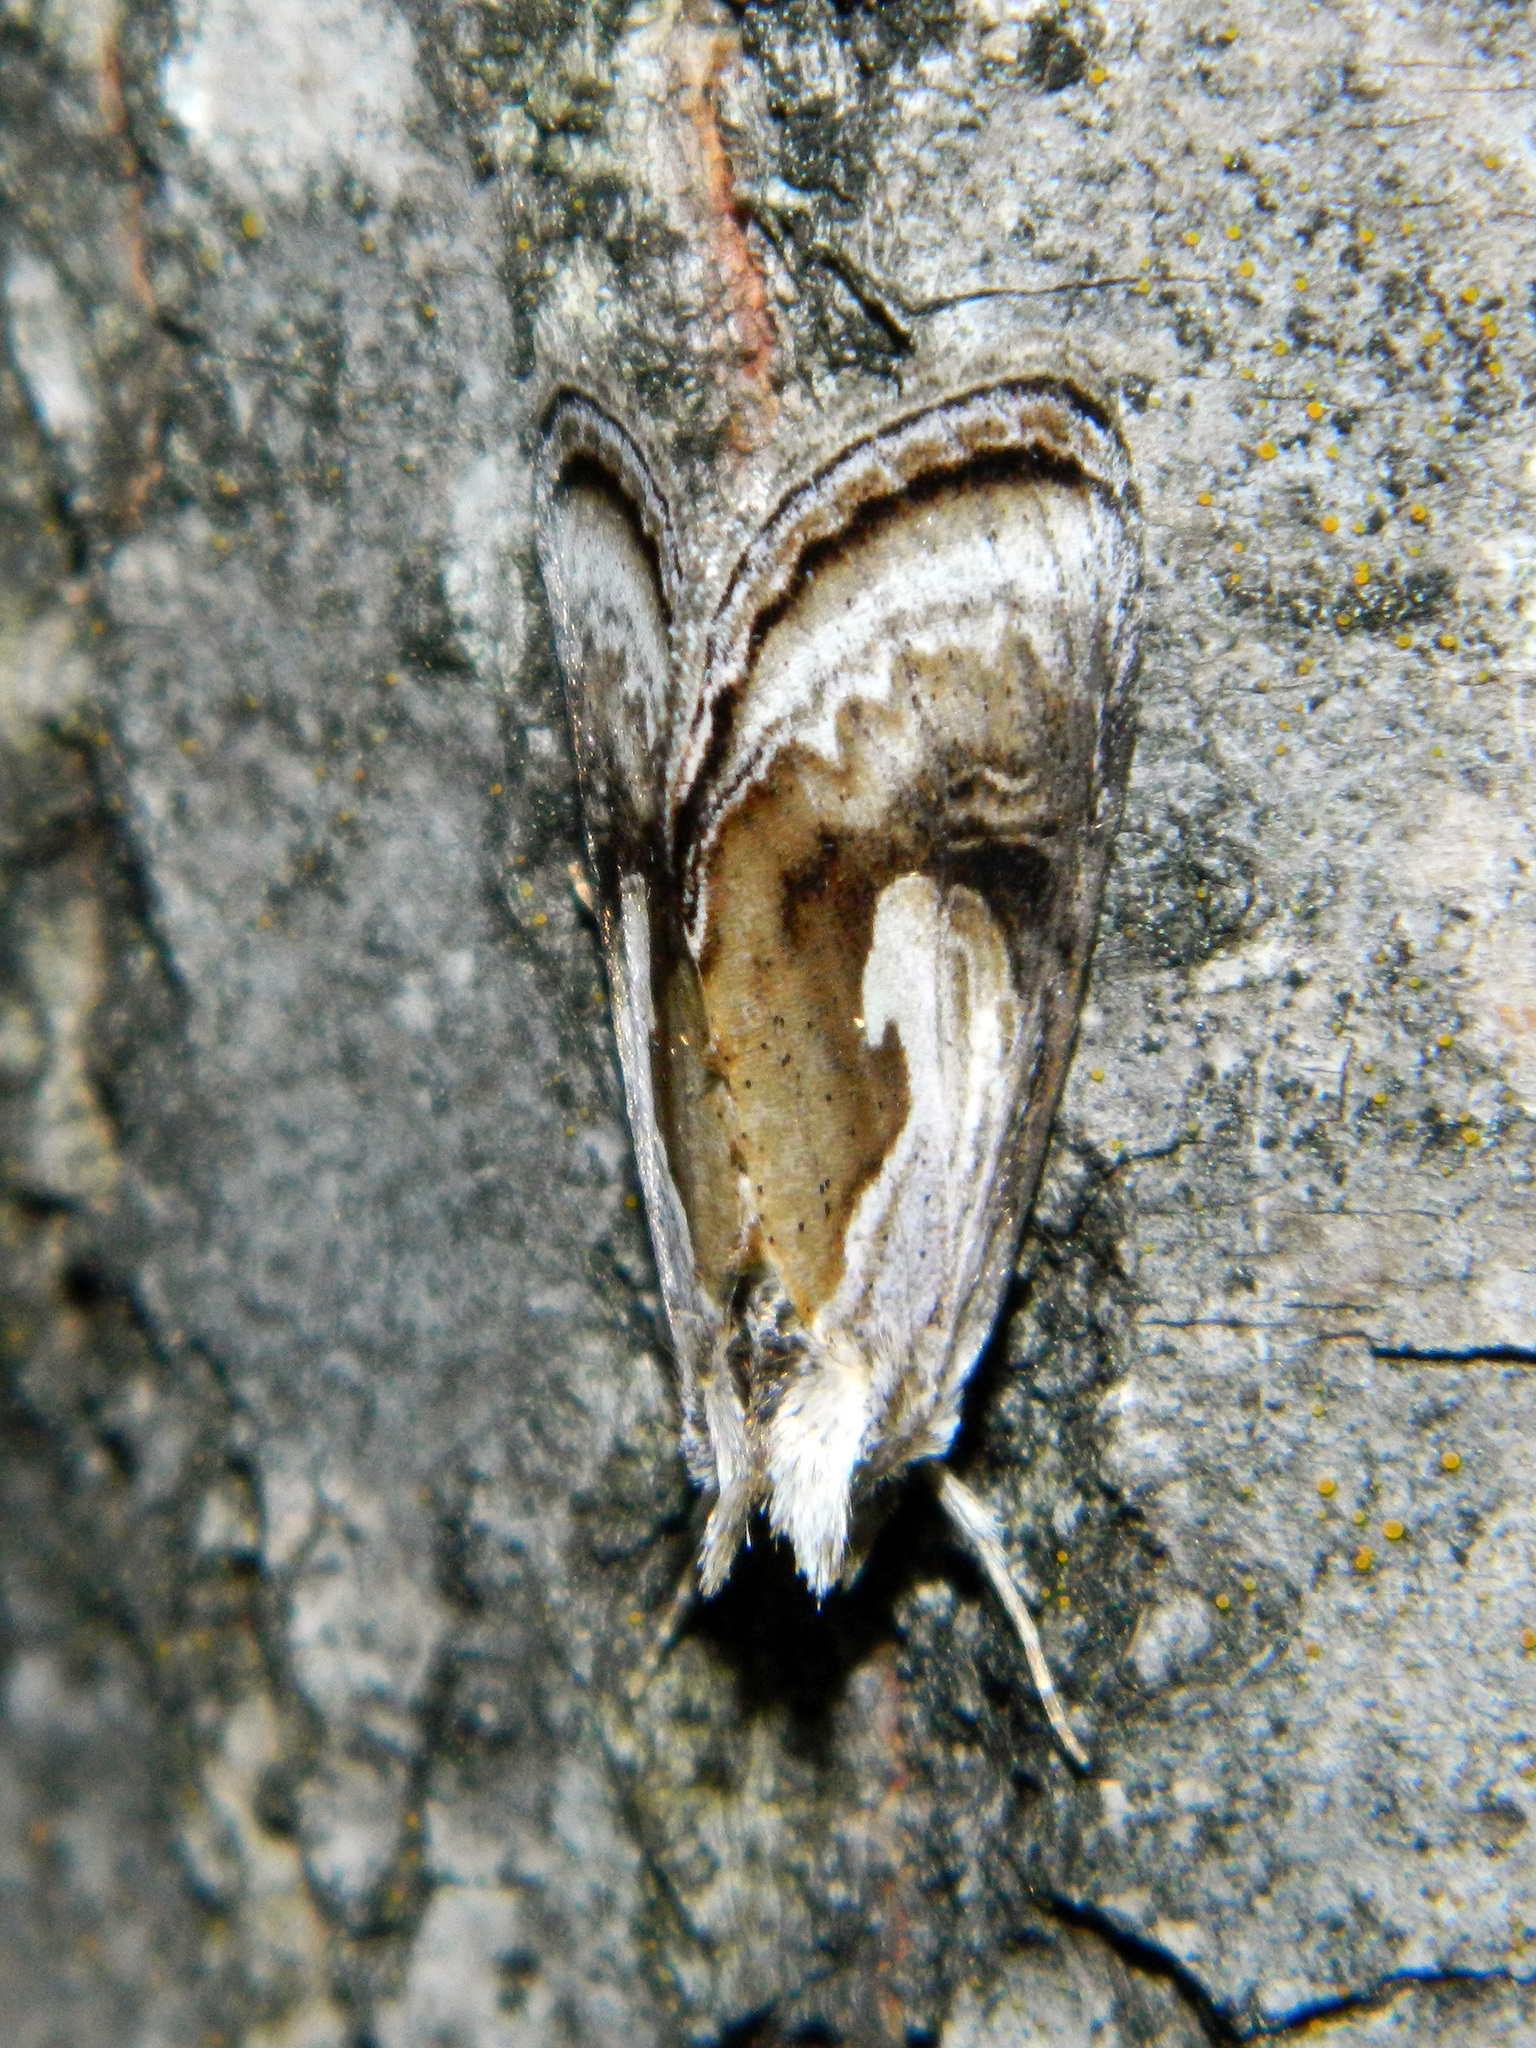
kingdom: Animalia
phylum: Arthropoda
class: Insecta
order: Lepidoptera
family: Noctuidae
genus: Chrysanympha
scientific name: Chrysanympha formosa
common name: Formosa looper moth
